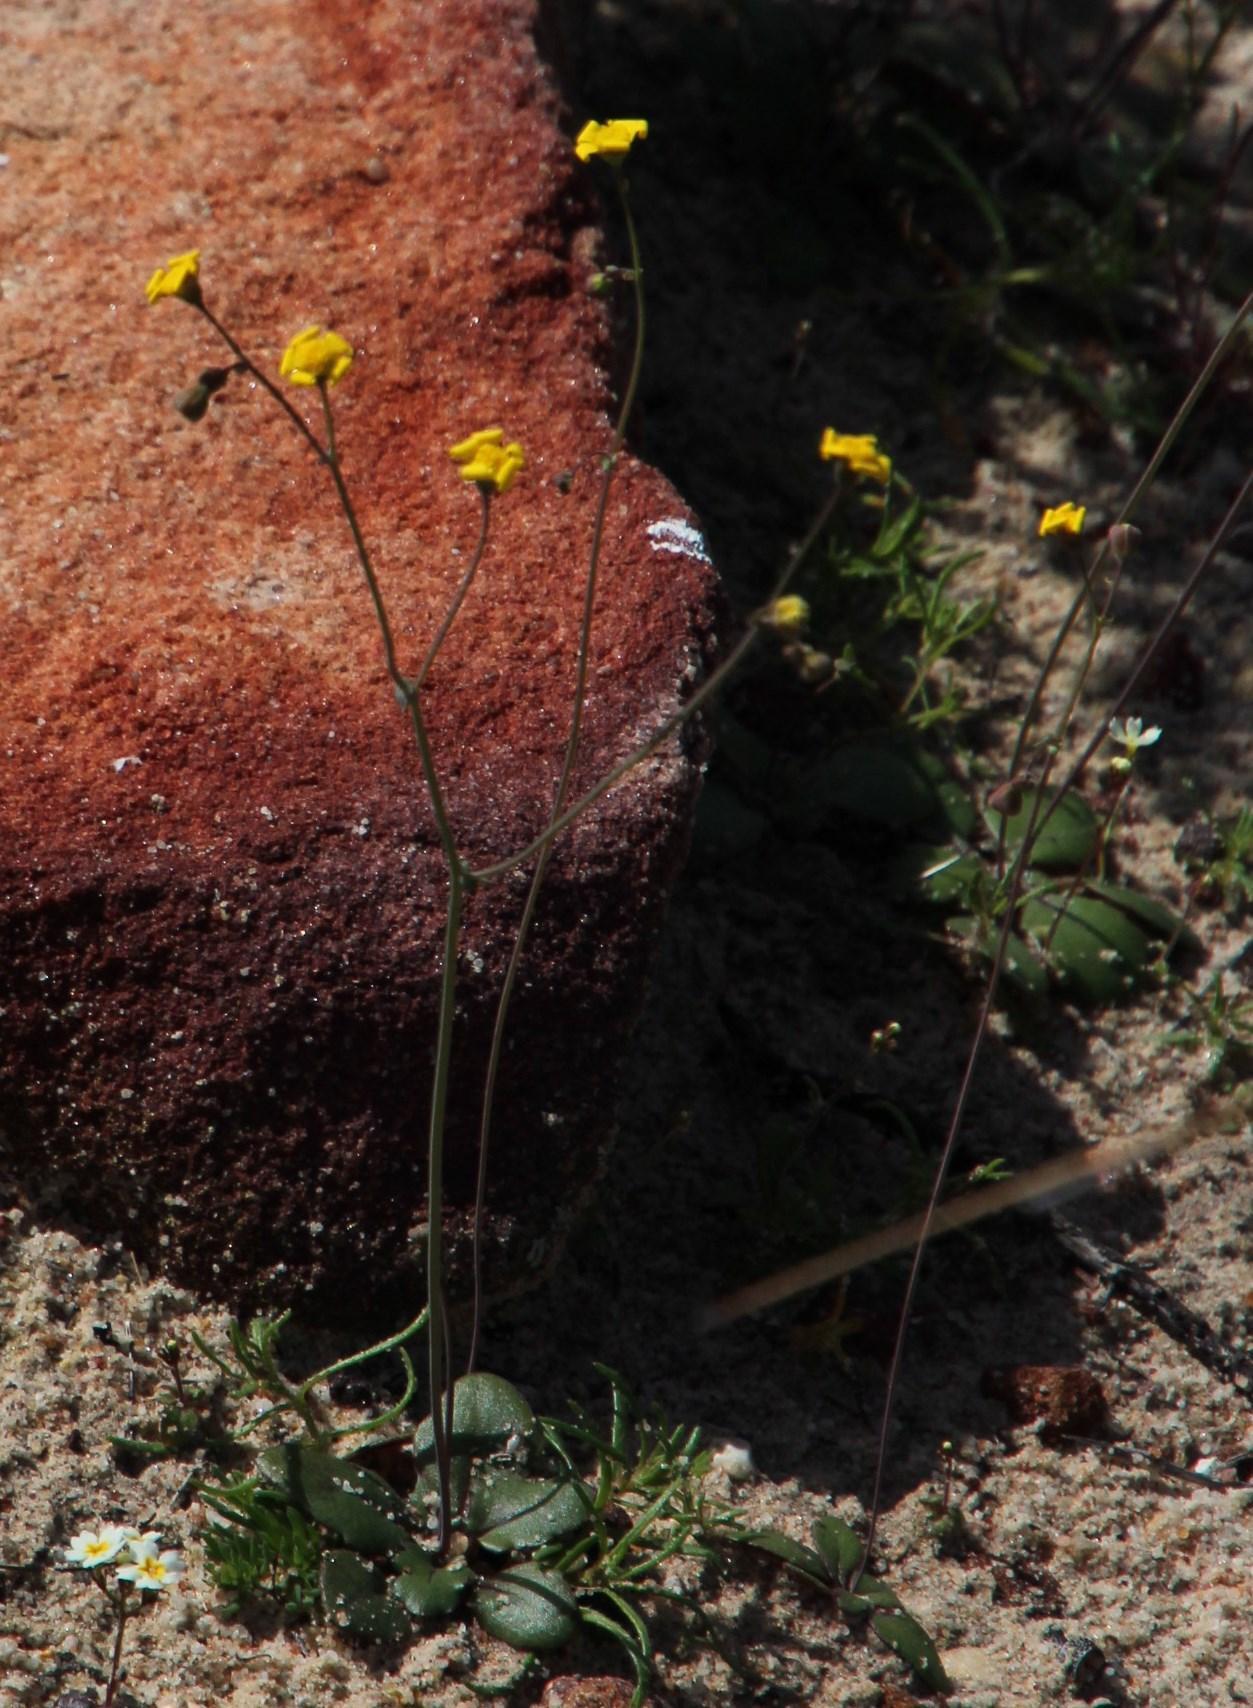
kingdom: Plantae
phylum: Tracheophyta
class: Magnoliopsida
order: Asterales
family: Asteraceae
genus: Gymnodiscus
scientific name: Gymnodiscus capillaris
